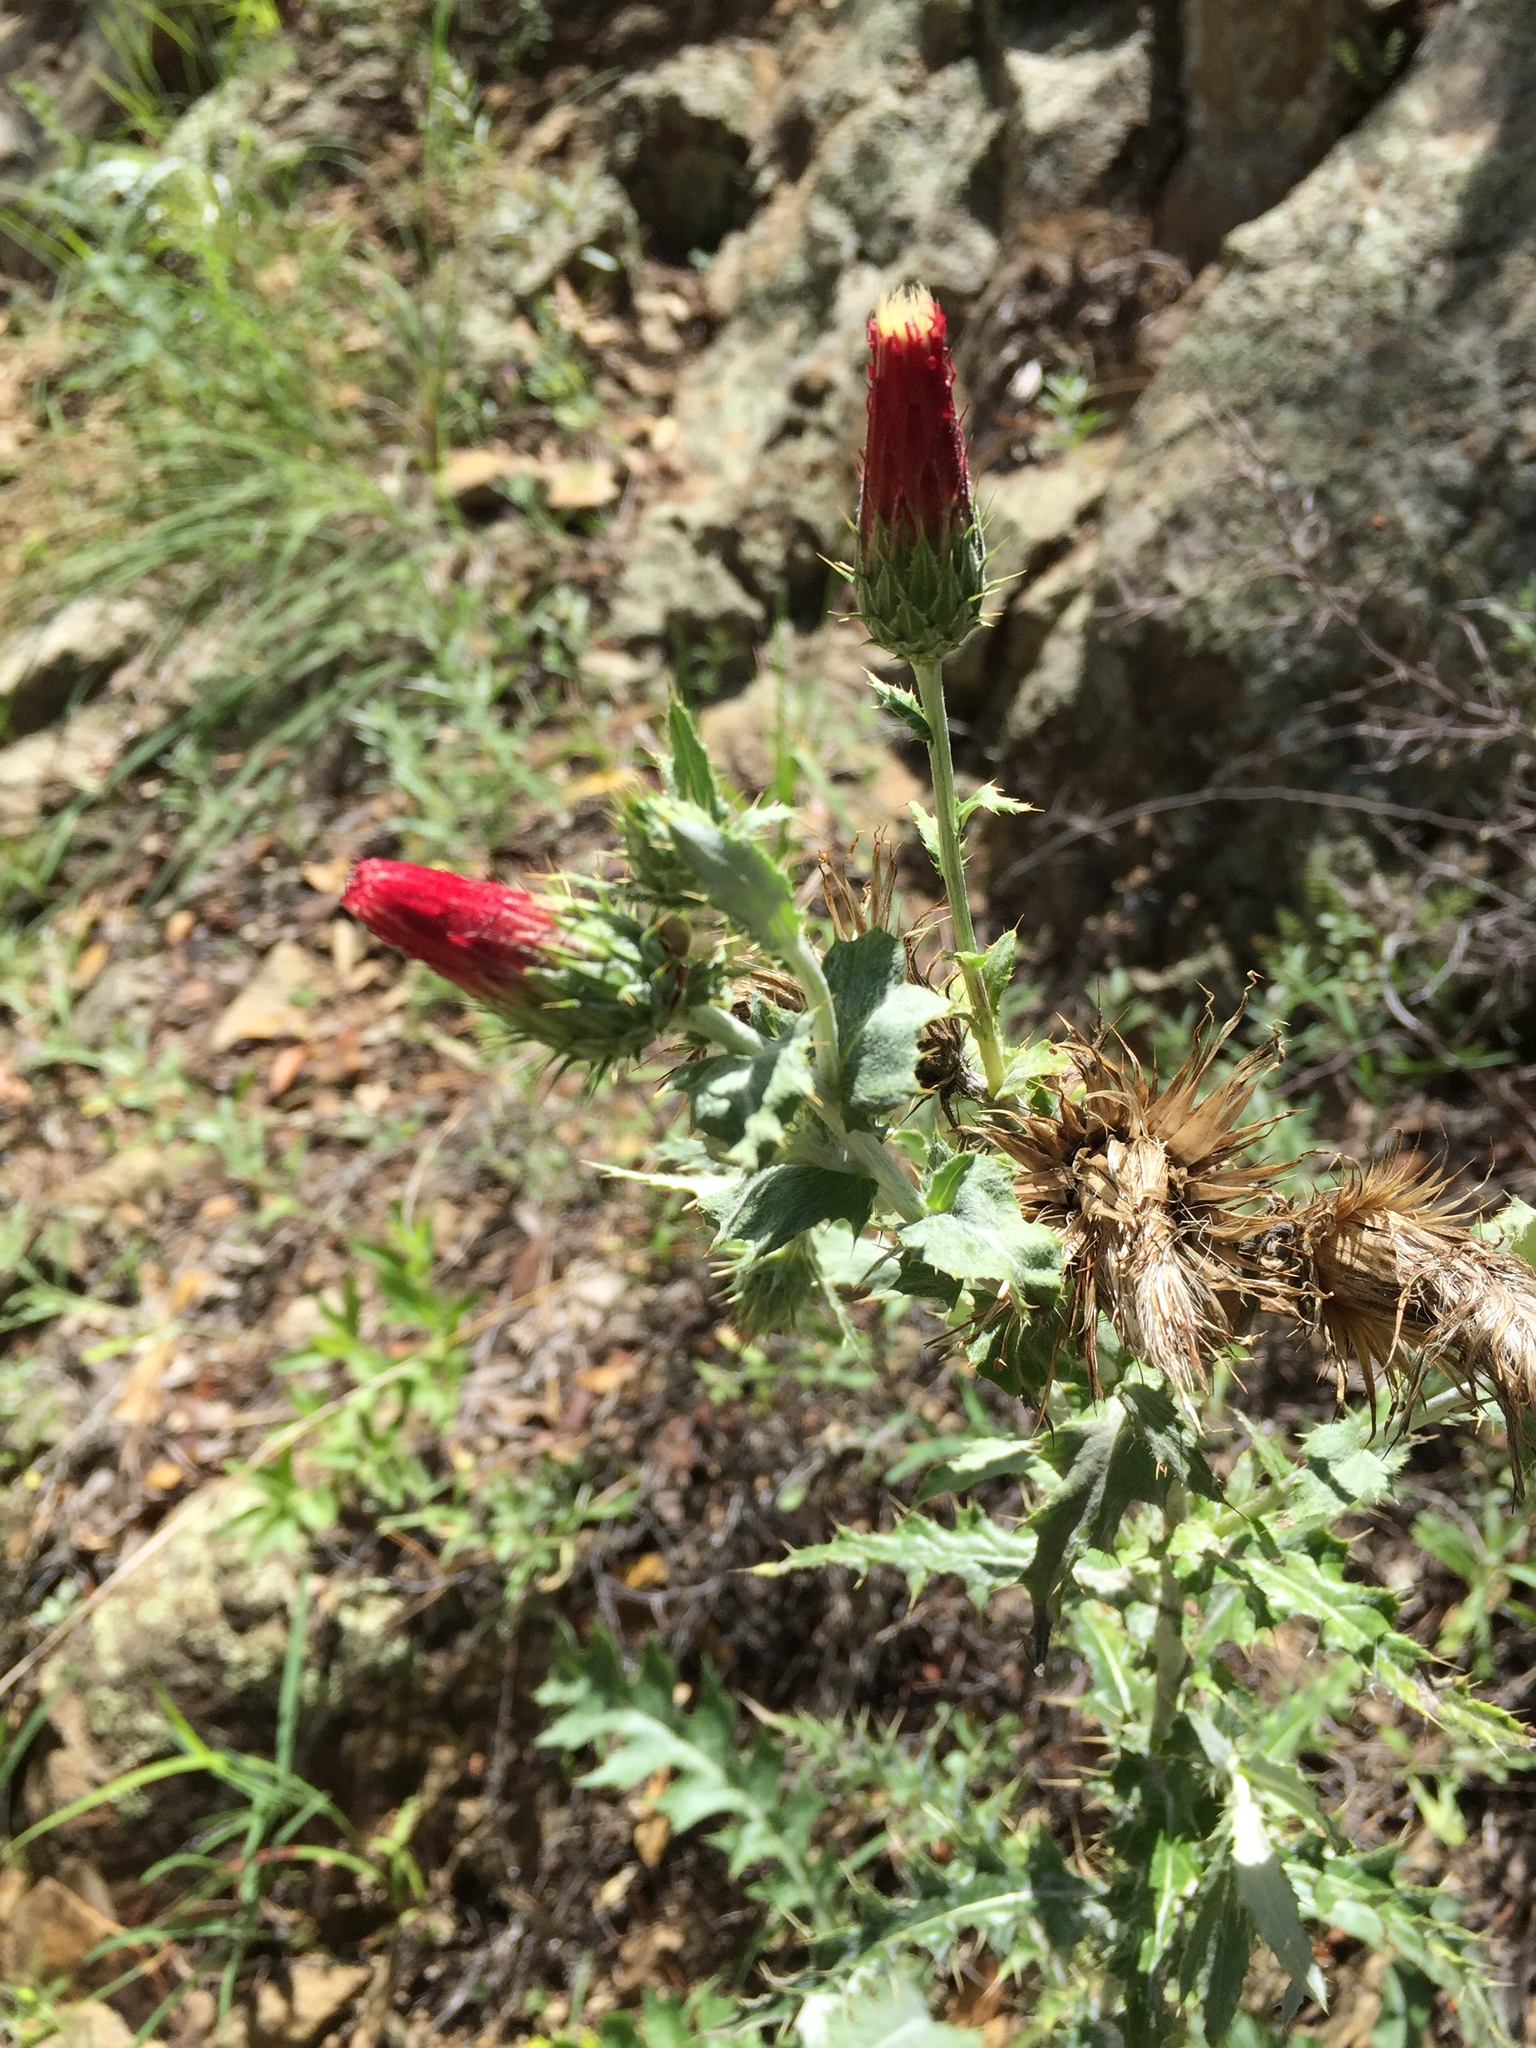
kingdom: Plantae
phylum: Tracheophyta
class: Magnoliopsida
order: Asterales
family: Asteraceae
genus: Cirsium
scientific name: Cirsium arizonicum
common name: Arizona thistle
